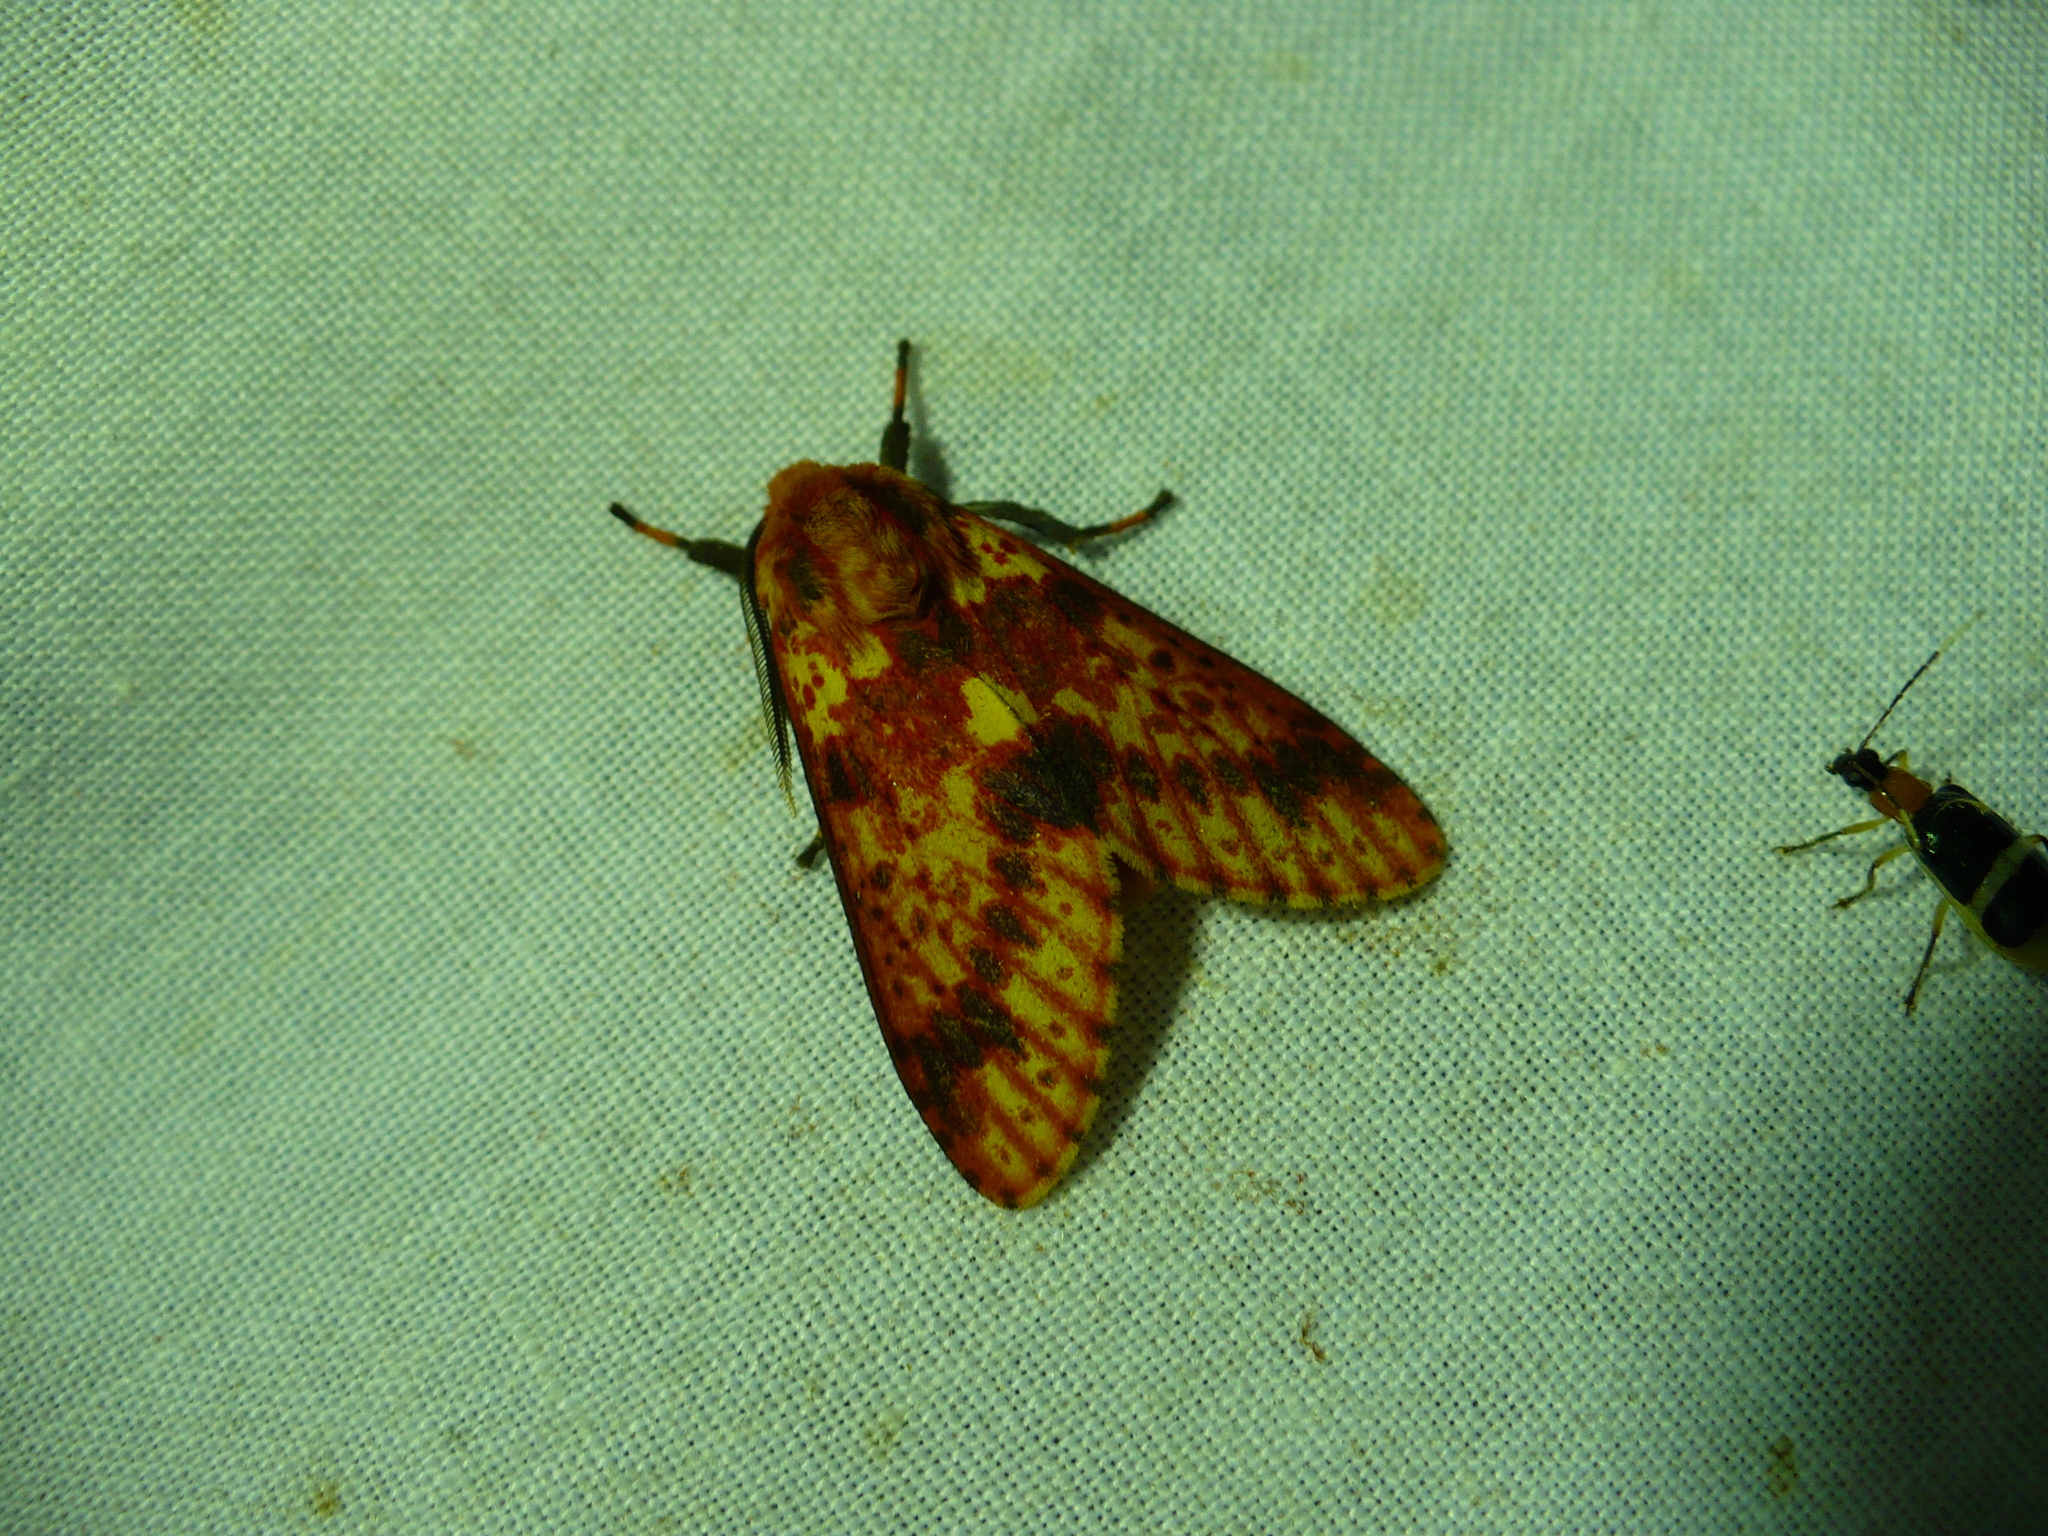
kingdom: Animalia
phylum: Arthropoda
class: Insecta
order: Lepidoptera
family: Erebidae
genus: Symphlebia
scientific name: Symphlebia perflua
